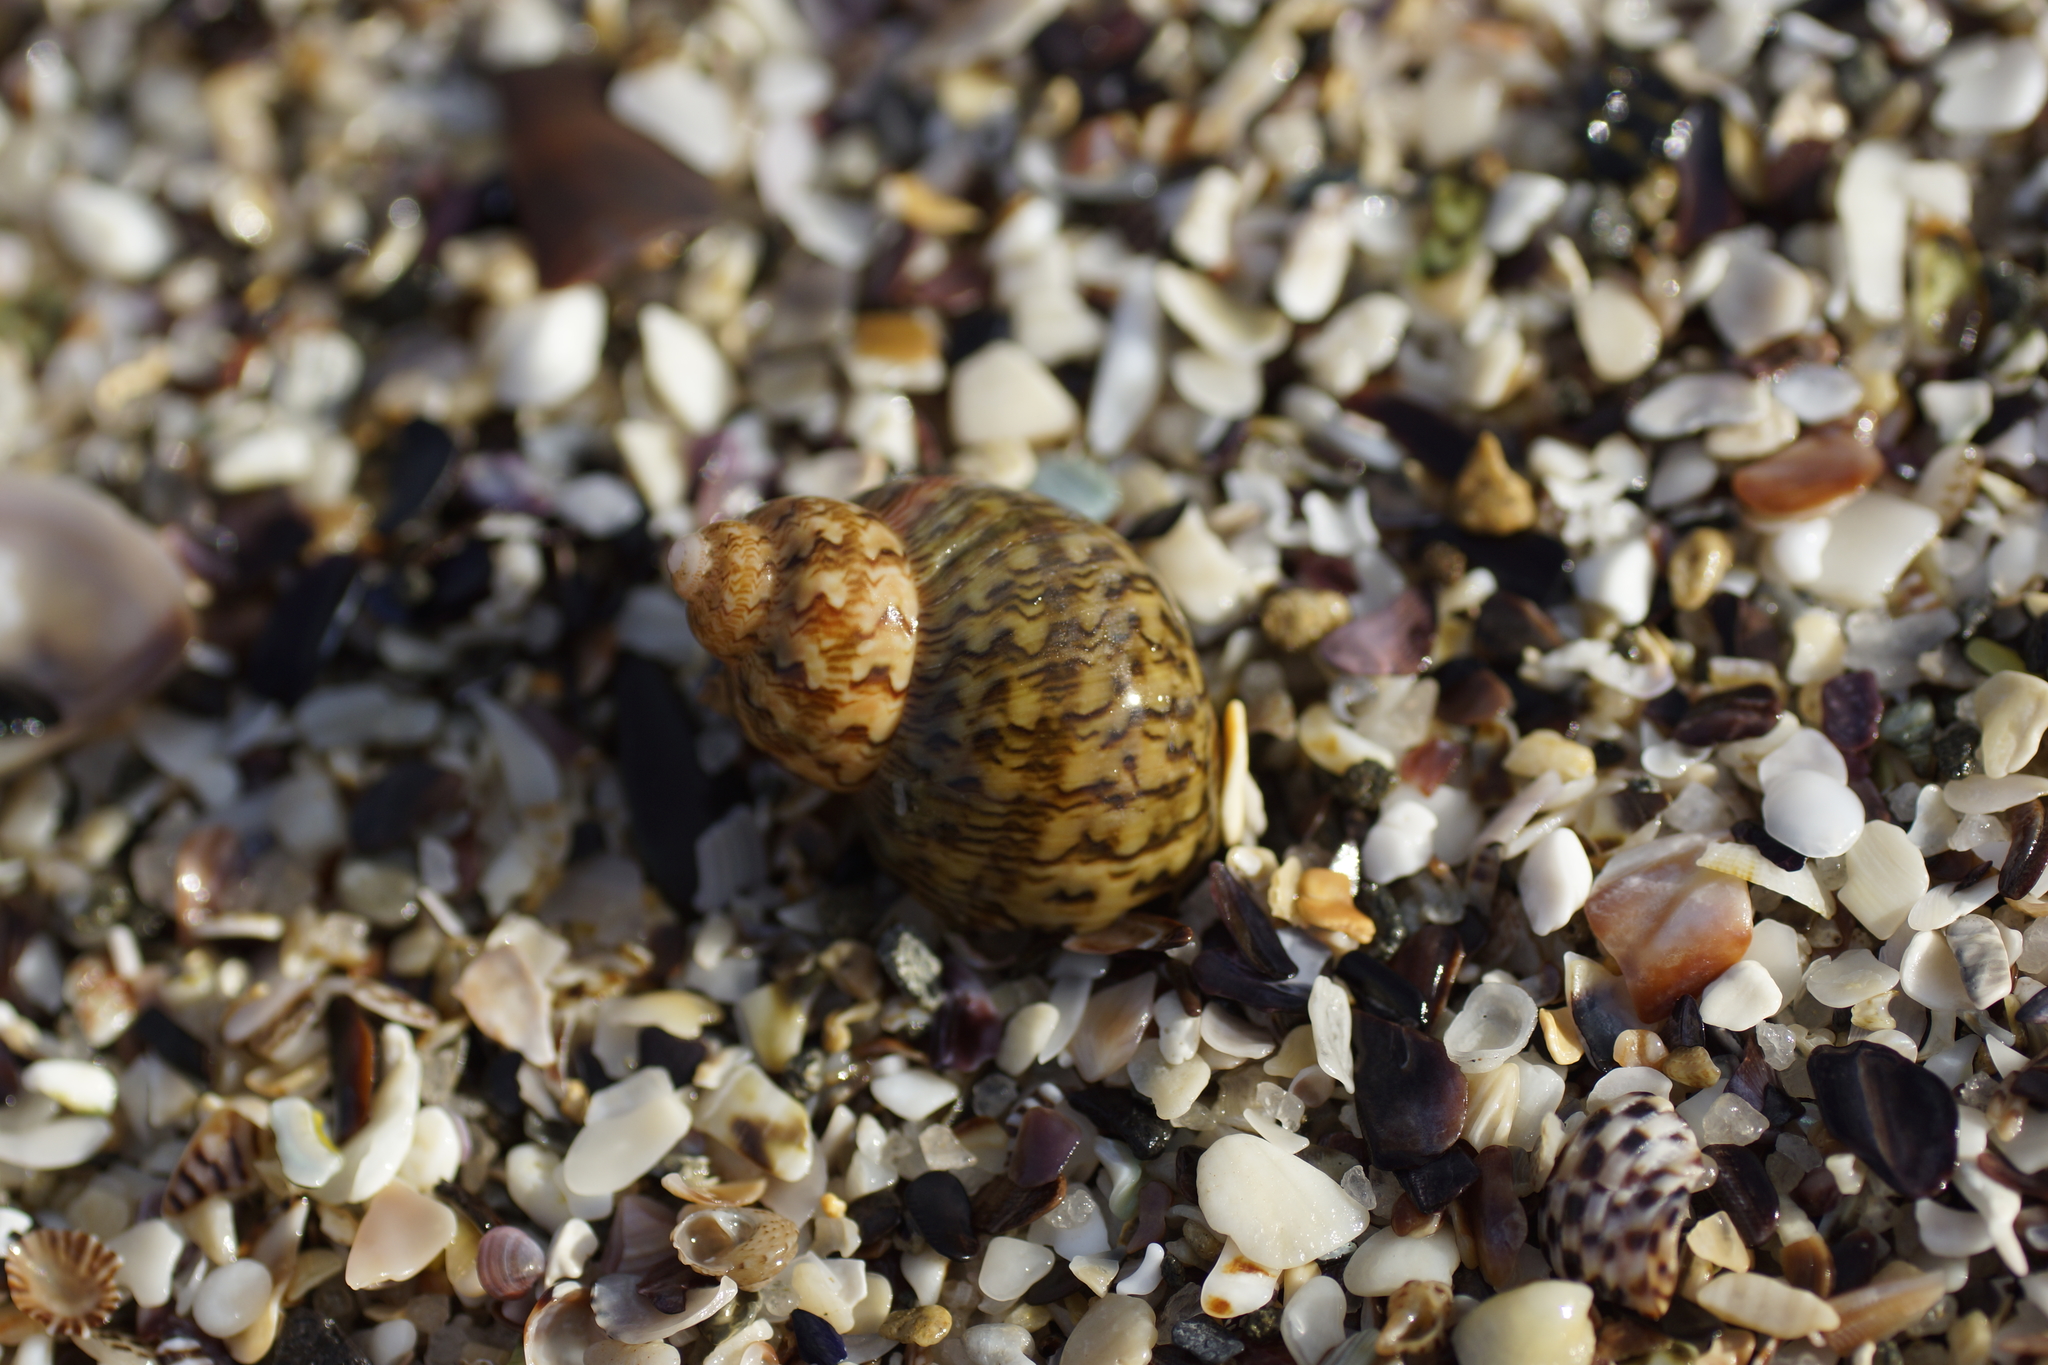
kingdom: Animalia
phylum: Mollusca
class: Gastropoda
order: Trochida
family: Phasianellidae
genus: Phasianella
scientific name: Phasianella ventricosa
